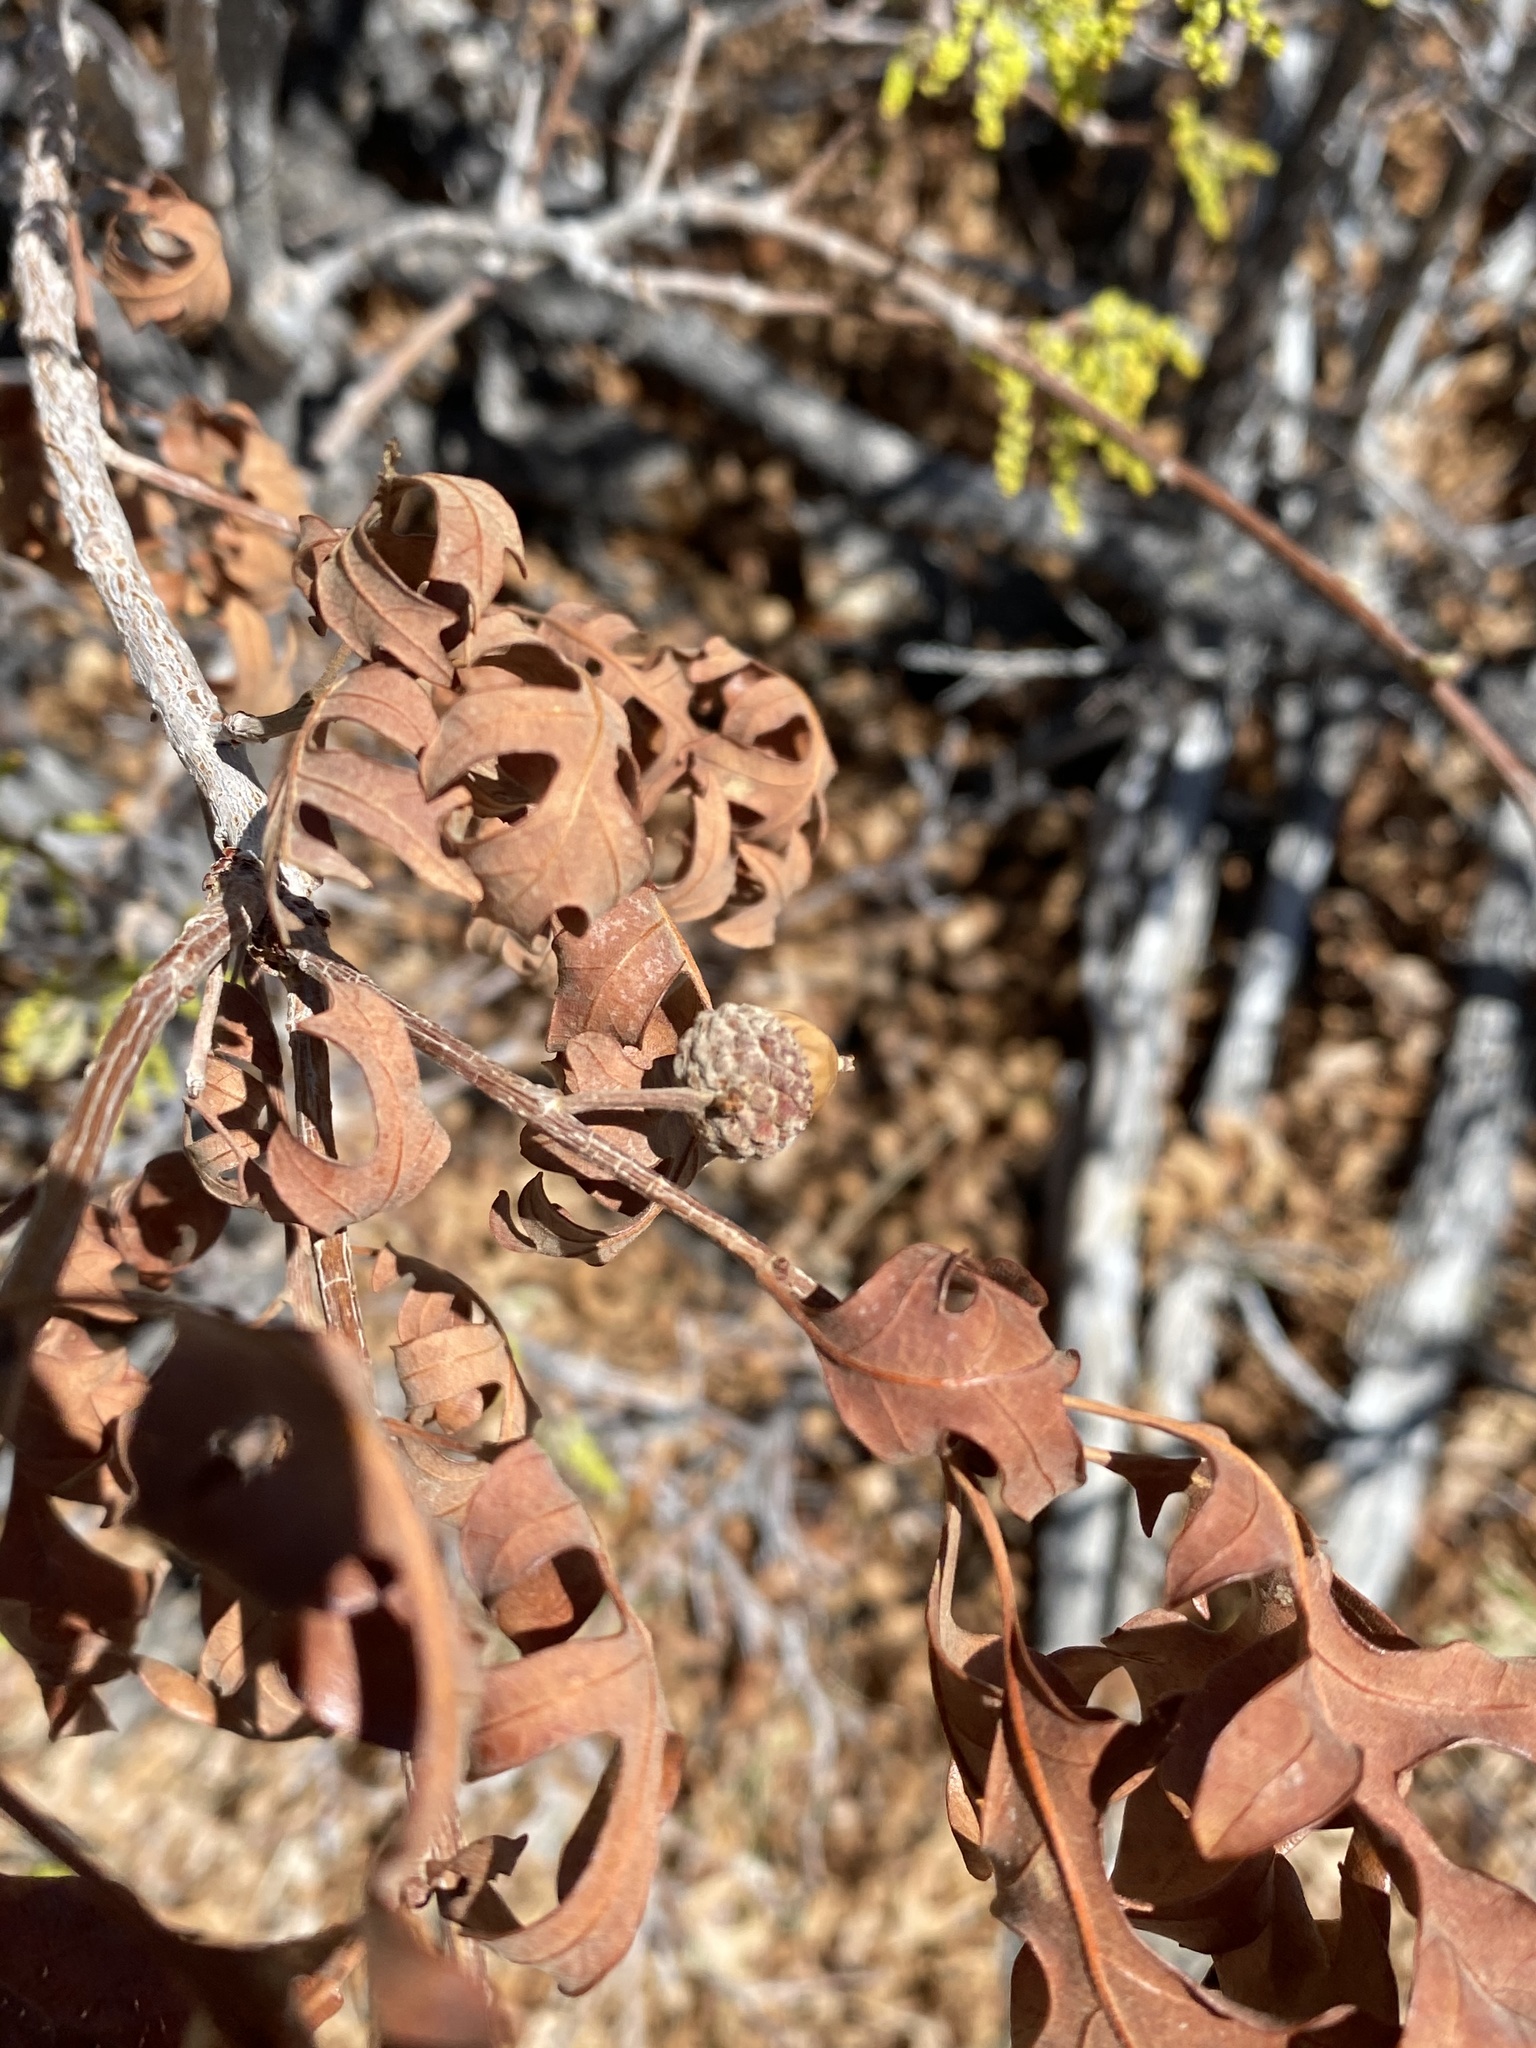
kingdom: Plantae
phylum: Tracheophyta
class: Magnoliopsida
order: Fagales
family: Fagaceae
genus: Quercus
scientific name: Quercus gambelii
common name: Gambel oak
